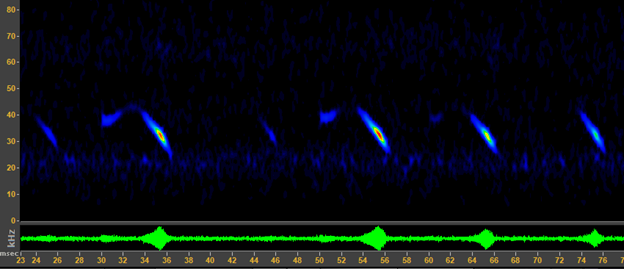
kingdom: Animalia
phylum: Chordata
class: Mammalia
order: Chiroptera
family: Vespertilionidae
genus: Corynorhinus
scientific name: Corynorhinus townsendii
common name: Townsend's big-eared bat
